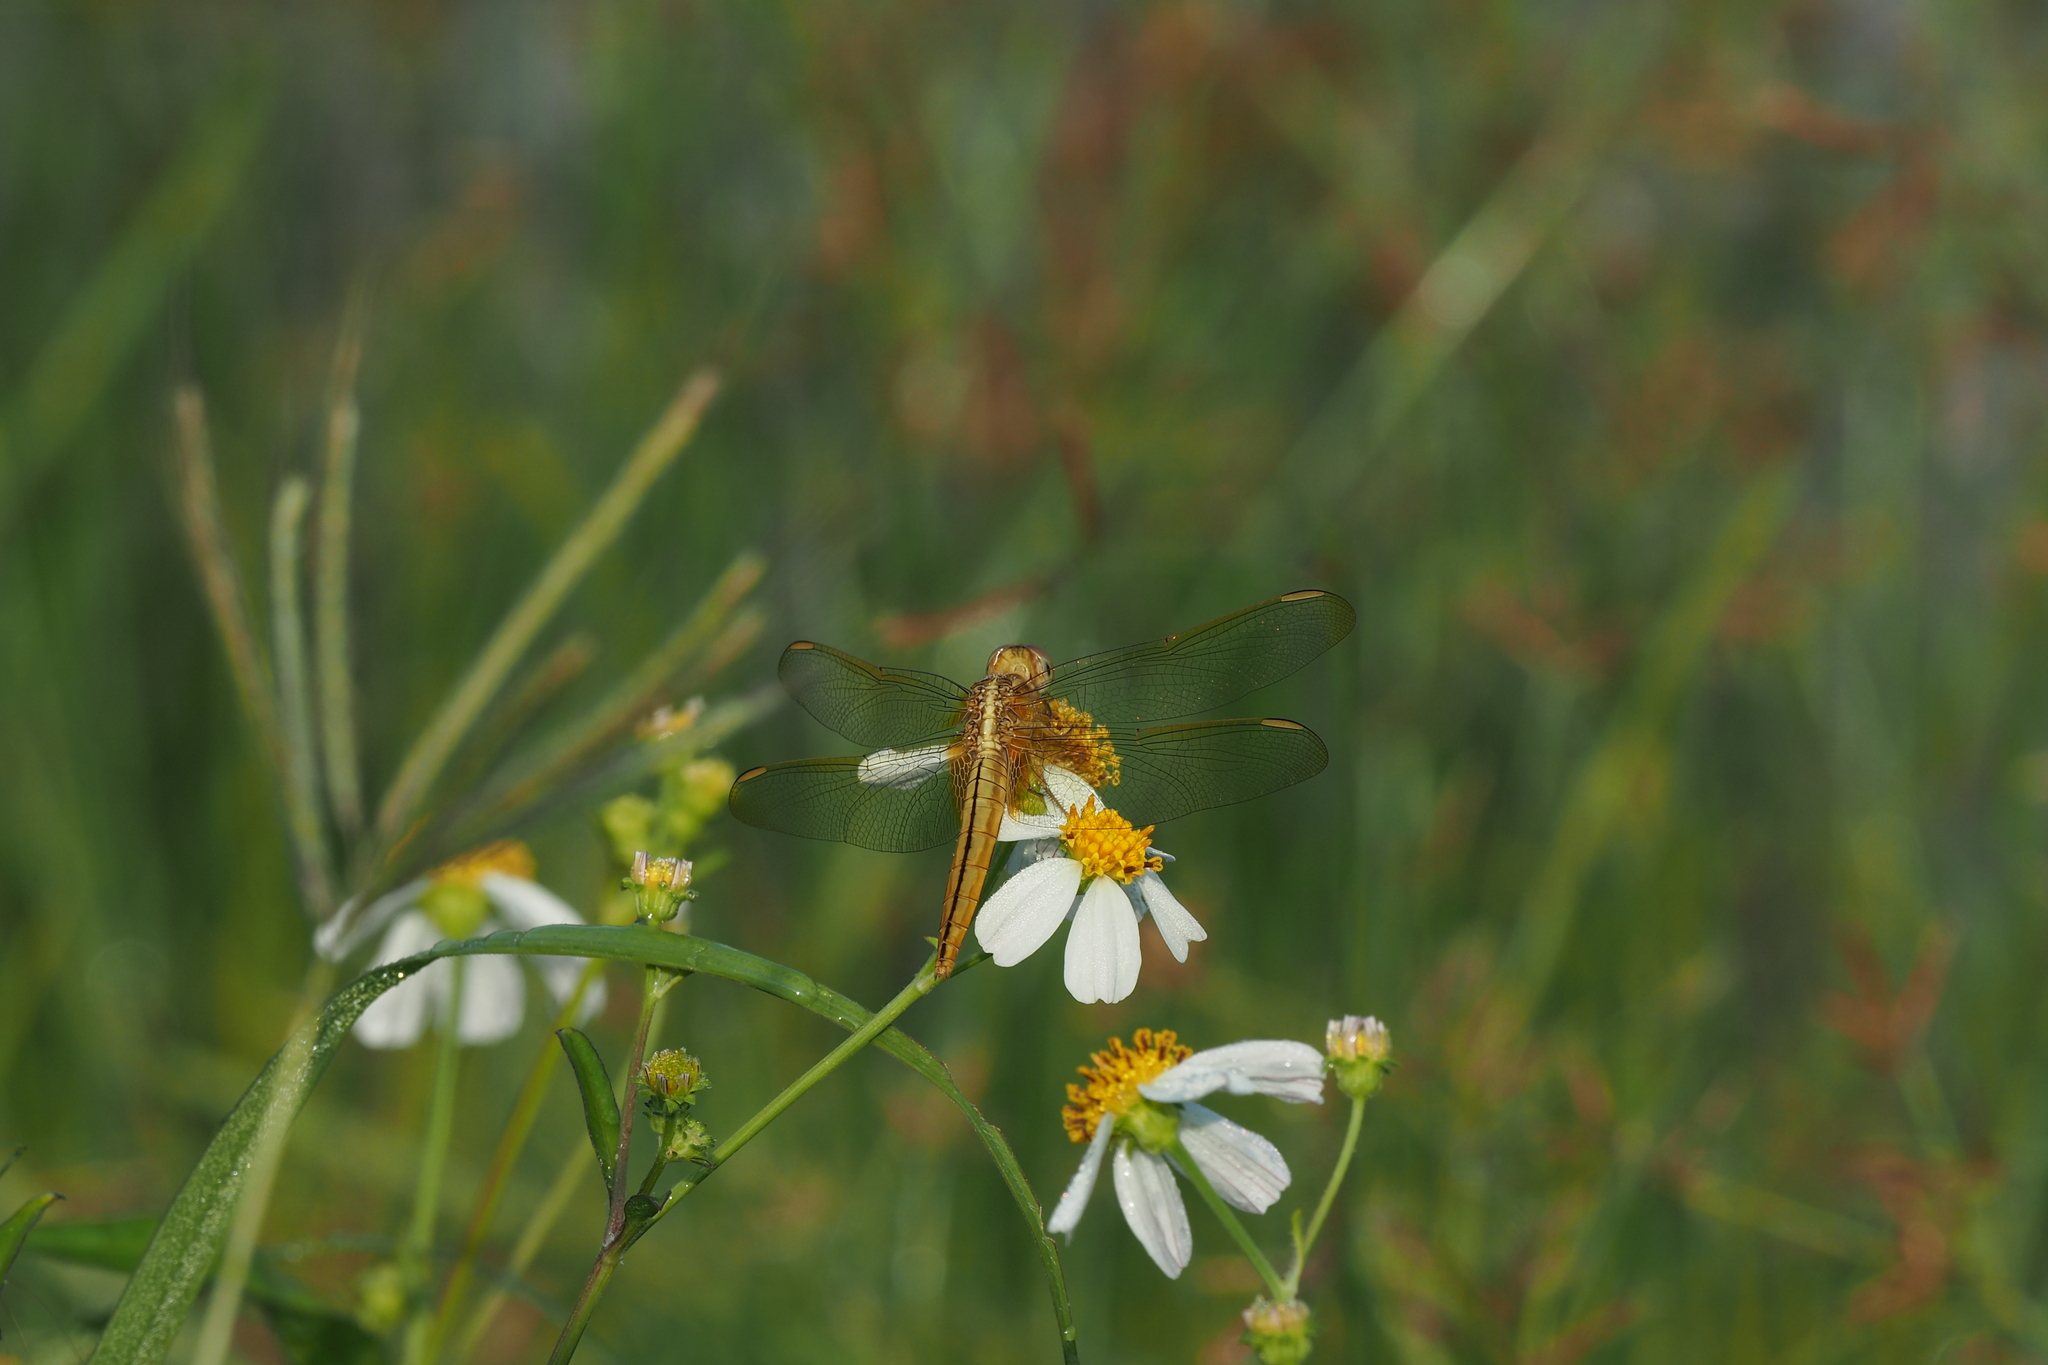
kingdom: Animalia
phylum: Arthropoda
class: Insecta
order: Odonata
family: Libellulidae
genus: Crocothemis
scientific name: Crocothemis servilia
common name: Scarlet skimmer
